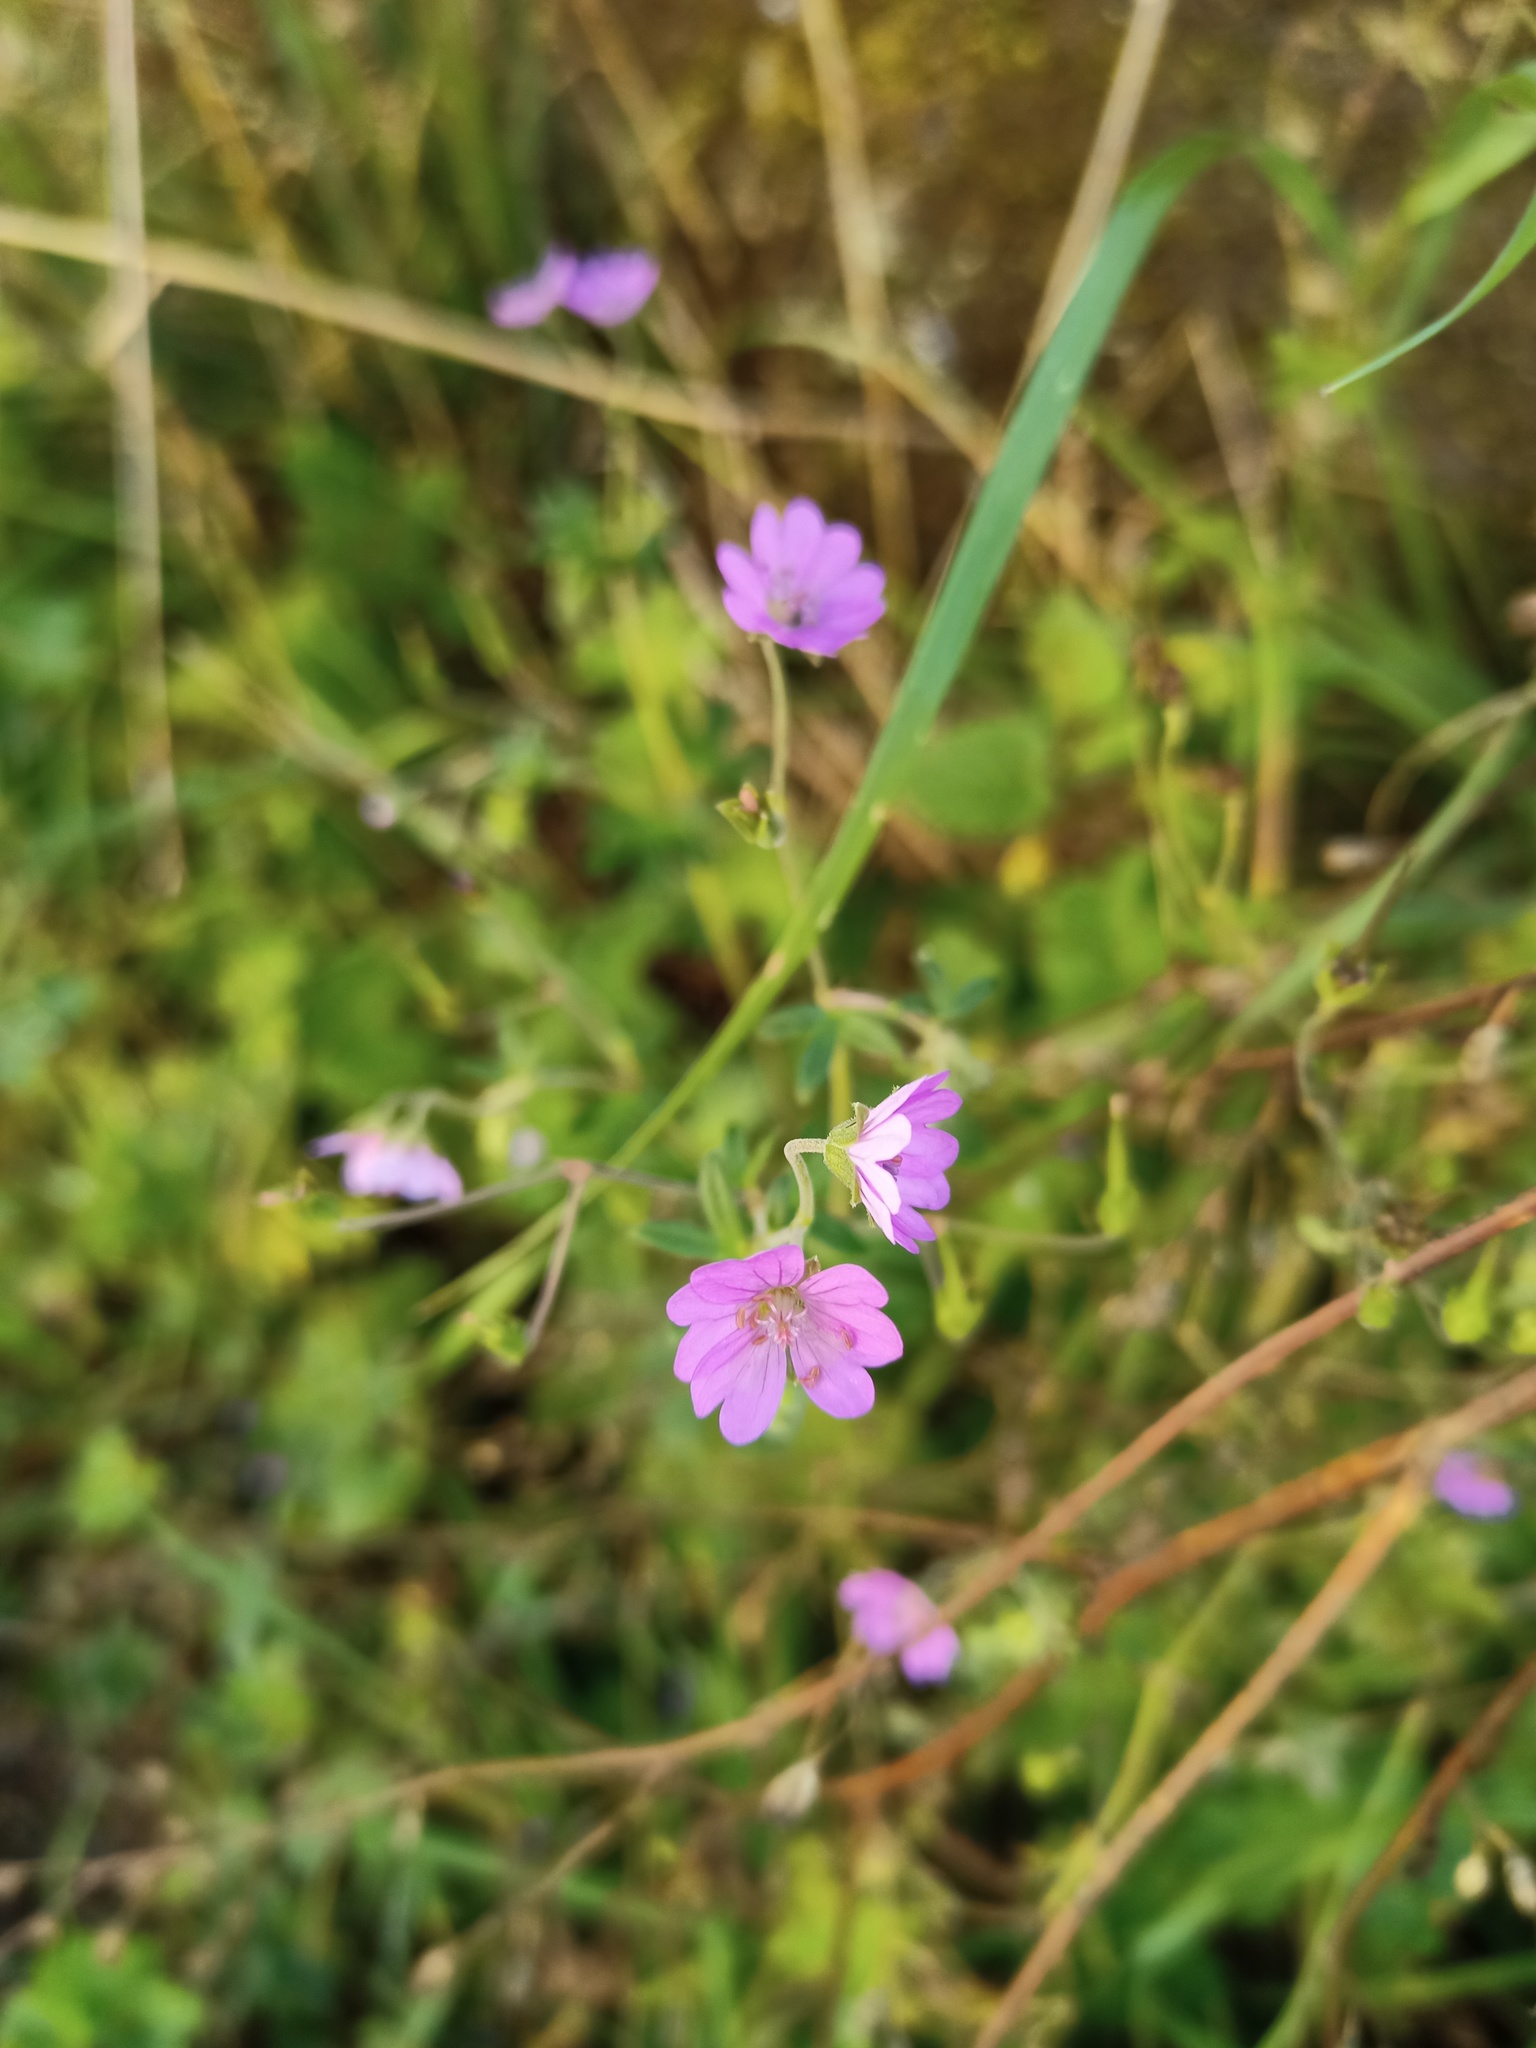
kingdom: Plantae
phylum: Tracheophyta
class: Magnoliopsida
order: Geraniales
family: Geraniaceae
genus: Geranium
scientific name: Geranium pyrenaicum
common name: Hedgerow crane's-bill
